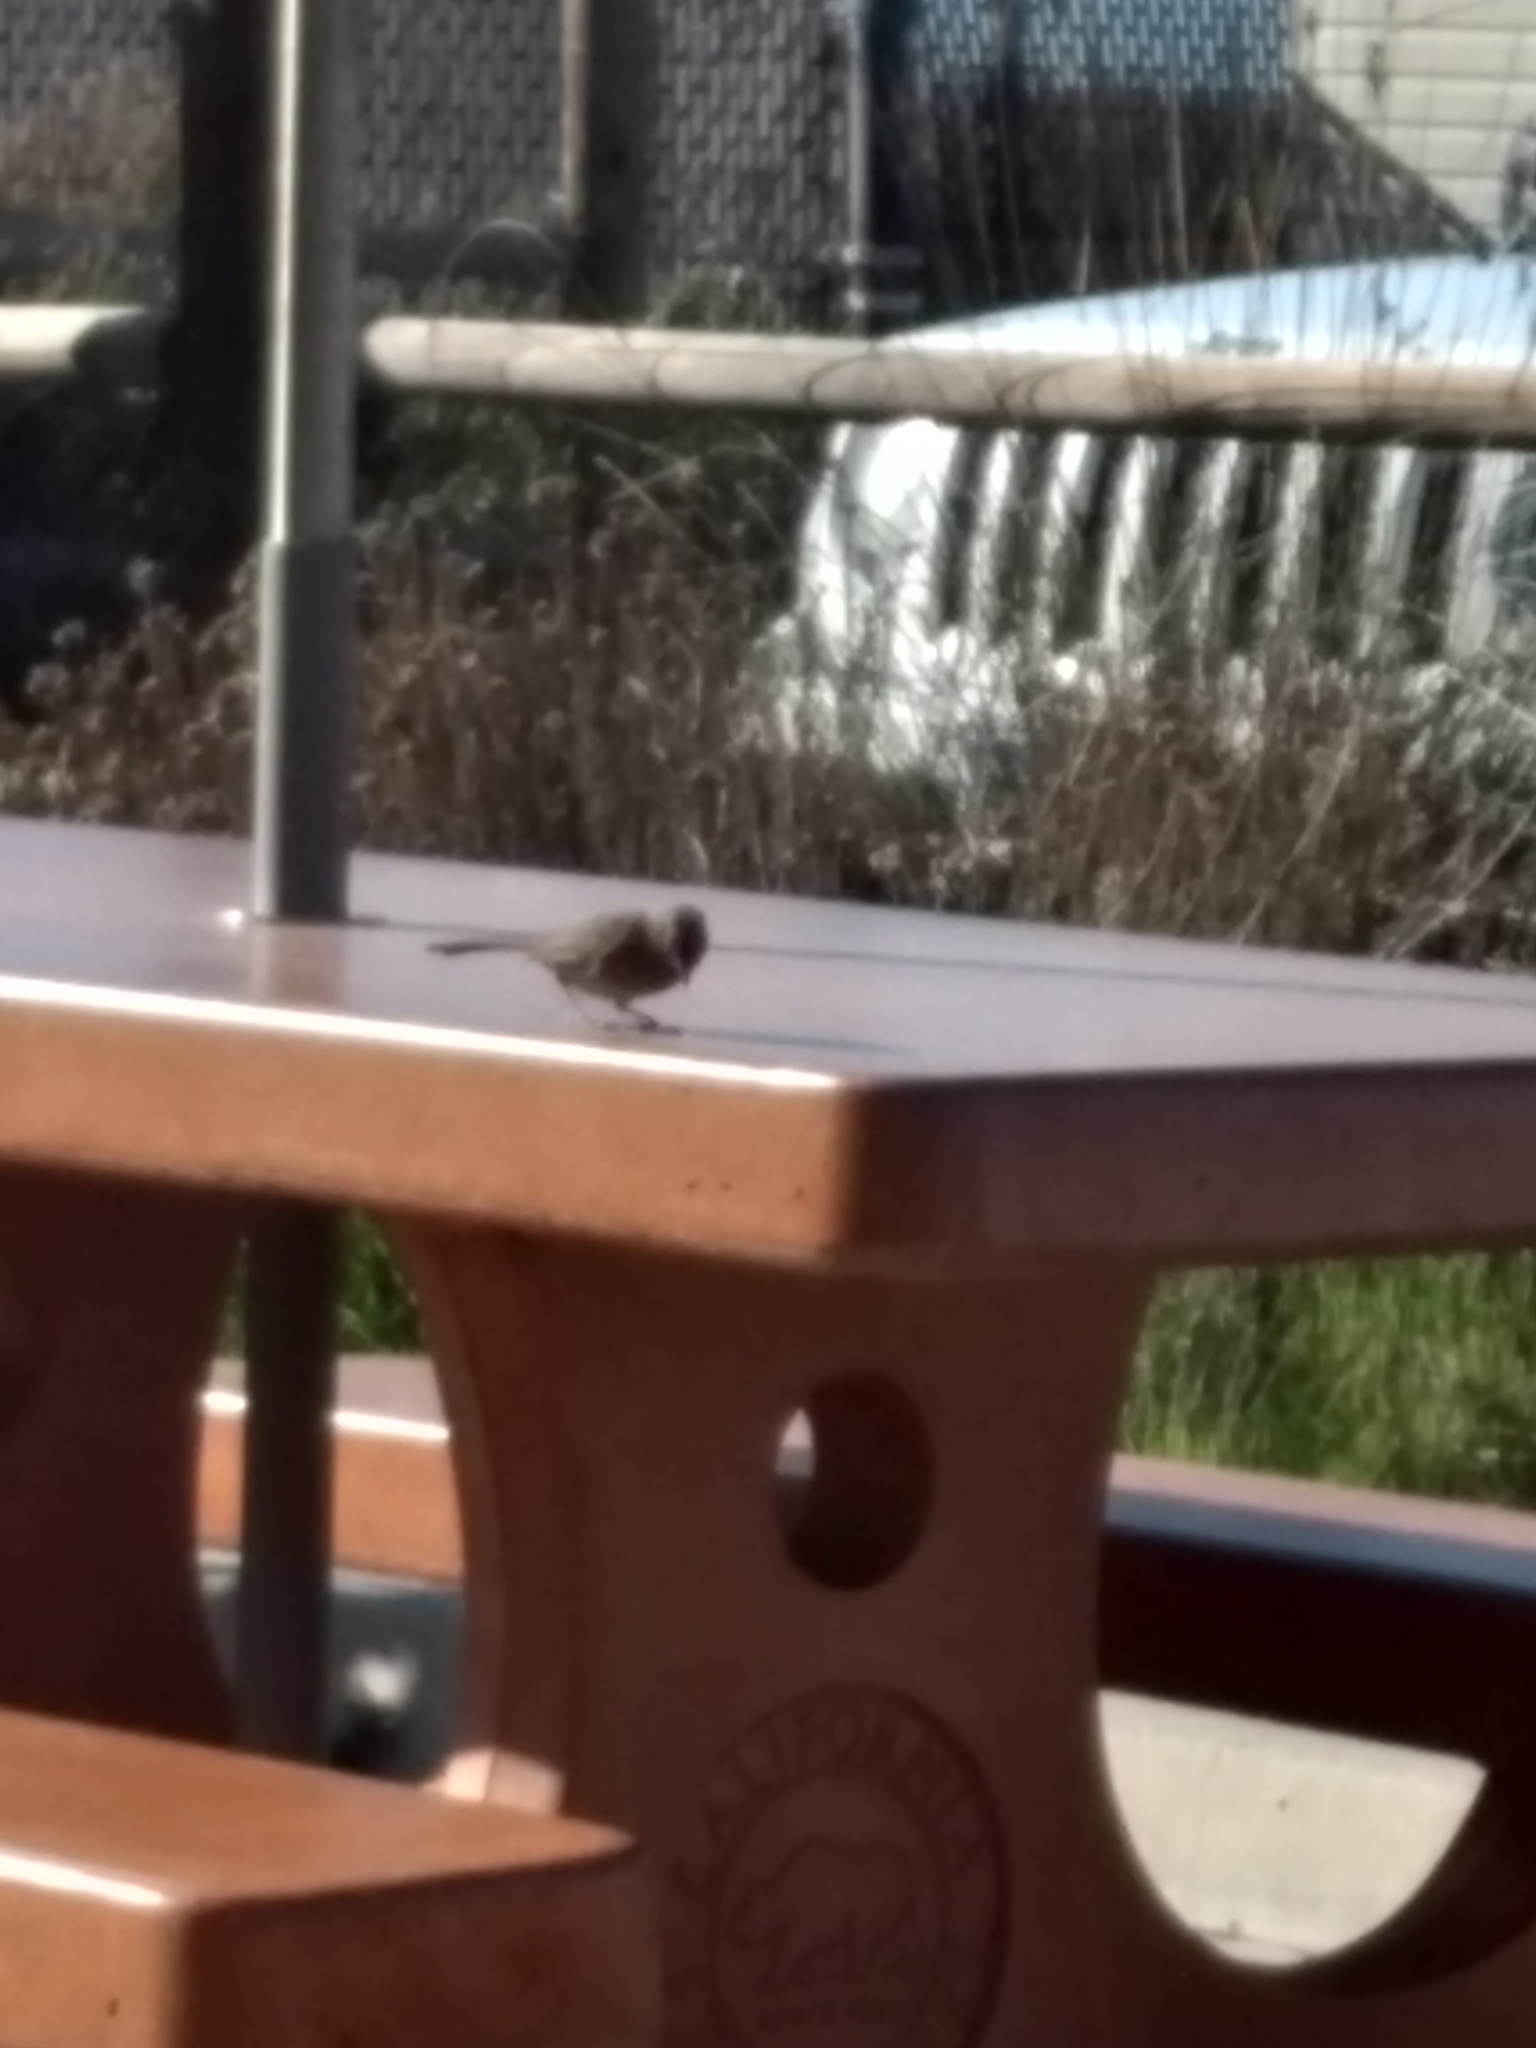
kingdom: Animalia
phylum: Chordata
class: Aves
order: Passeriformes
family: Passerellidae
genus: Melozone
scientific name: Melozone crissalis
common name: California towhee
